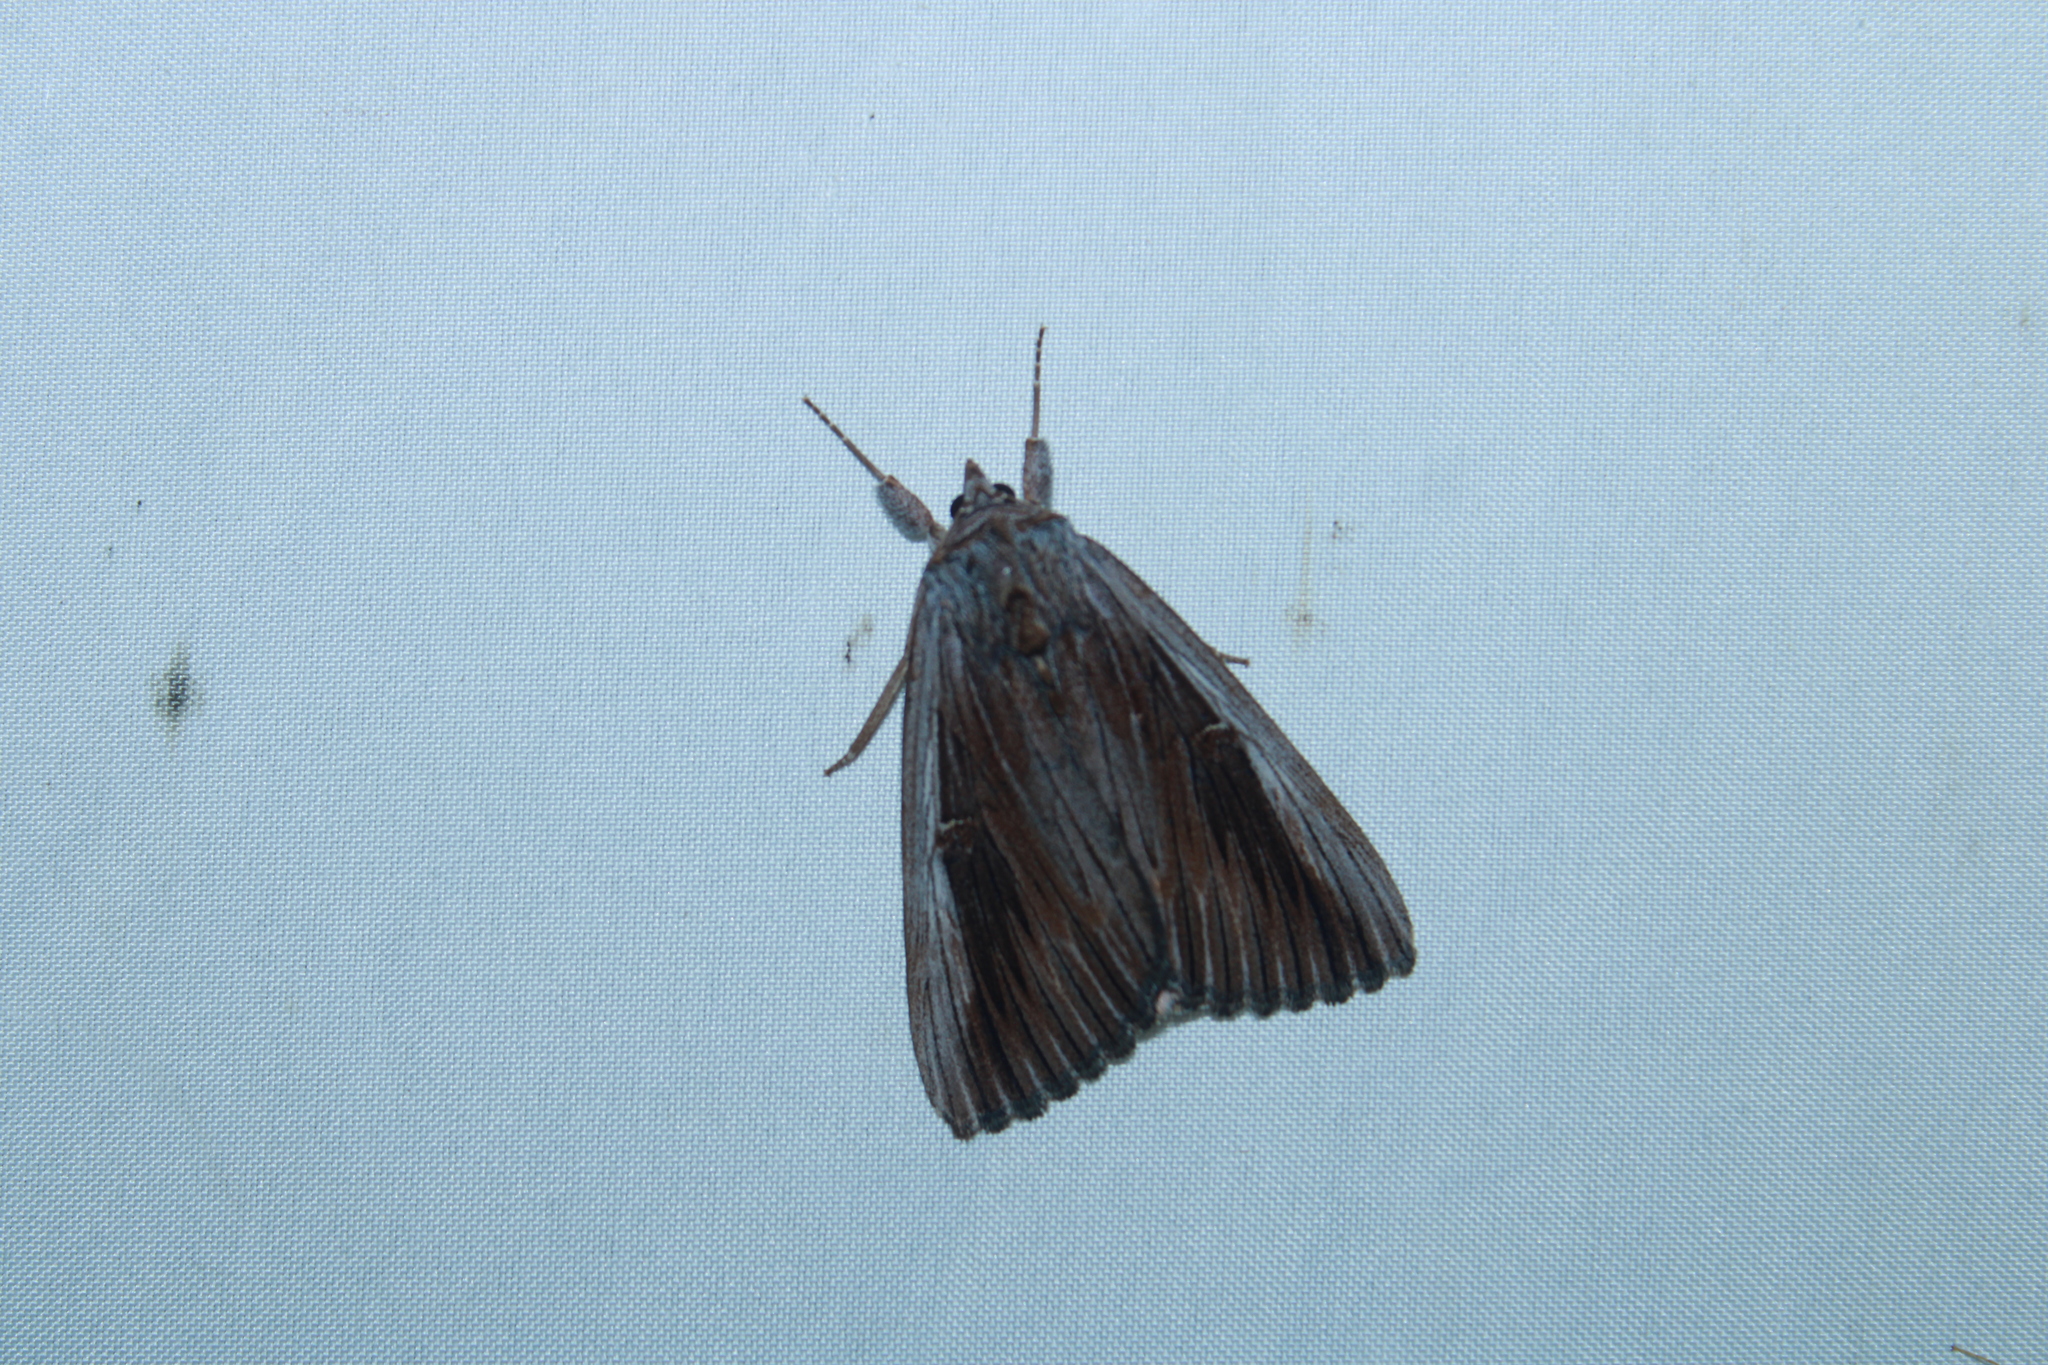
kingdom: Animalia
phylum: Arthropoda
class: Insecta
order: Lepidoptera
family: Erebidae
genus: Catocala
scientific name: Catocala herodias
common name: Pine barrens underwing
